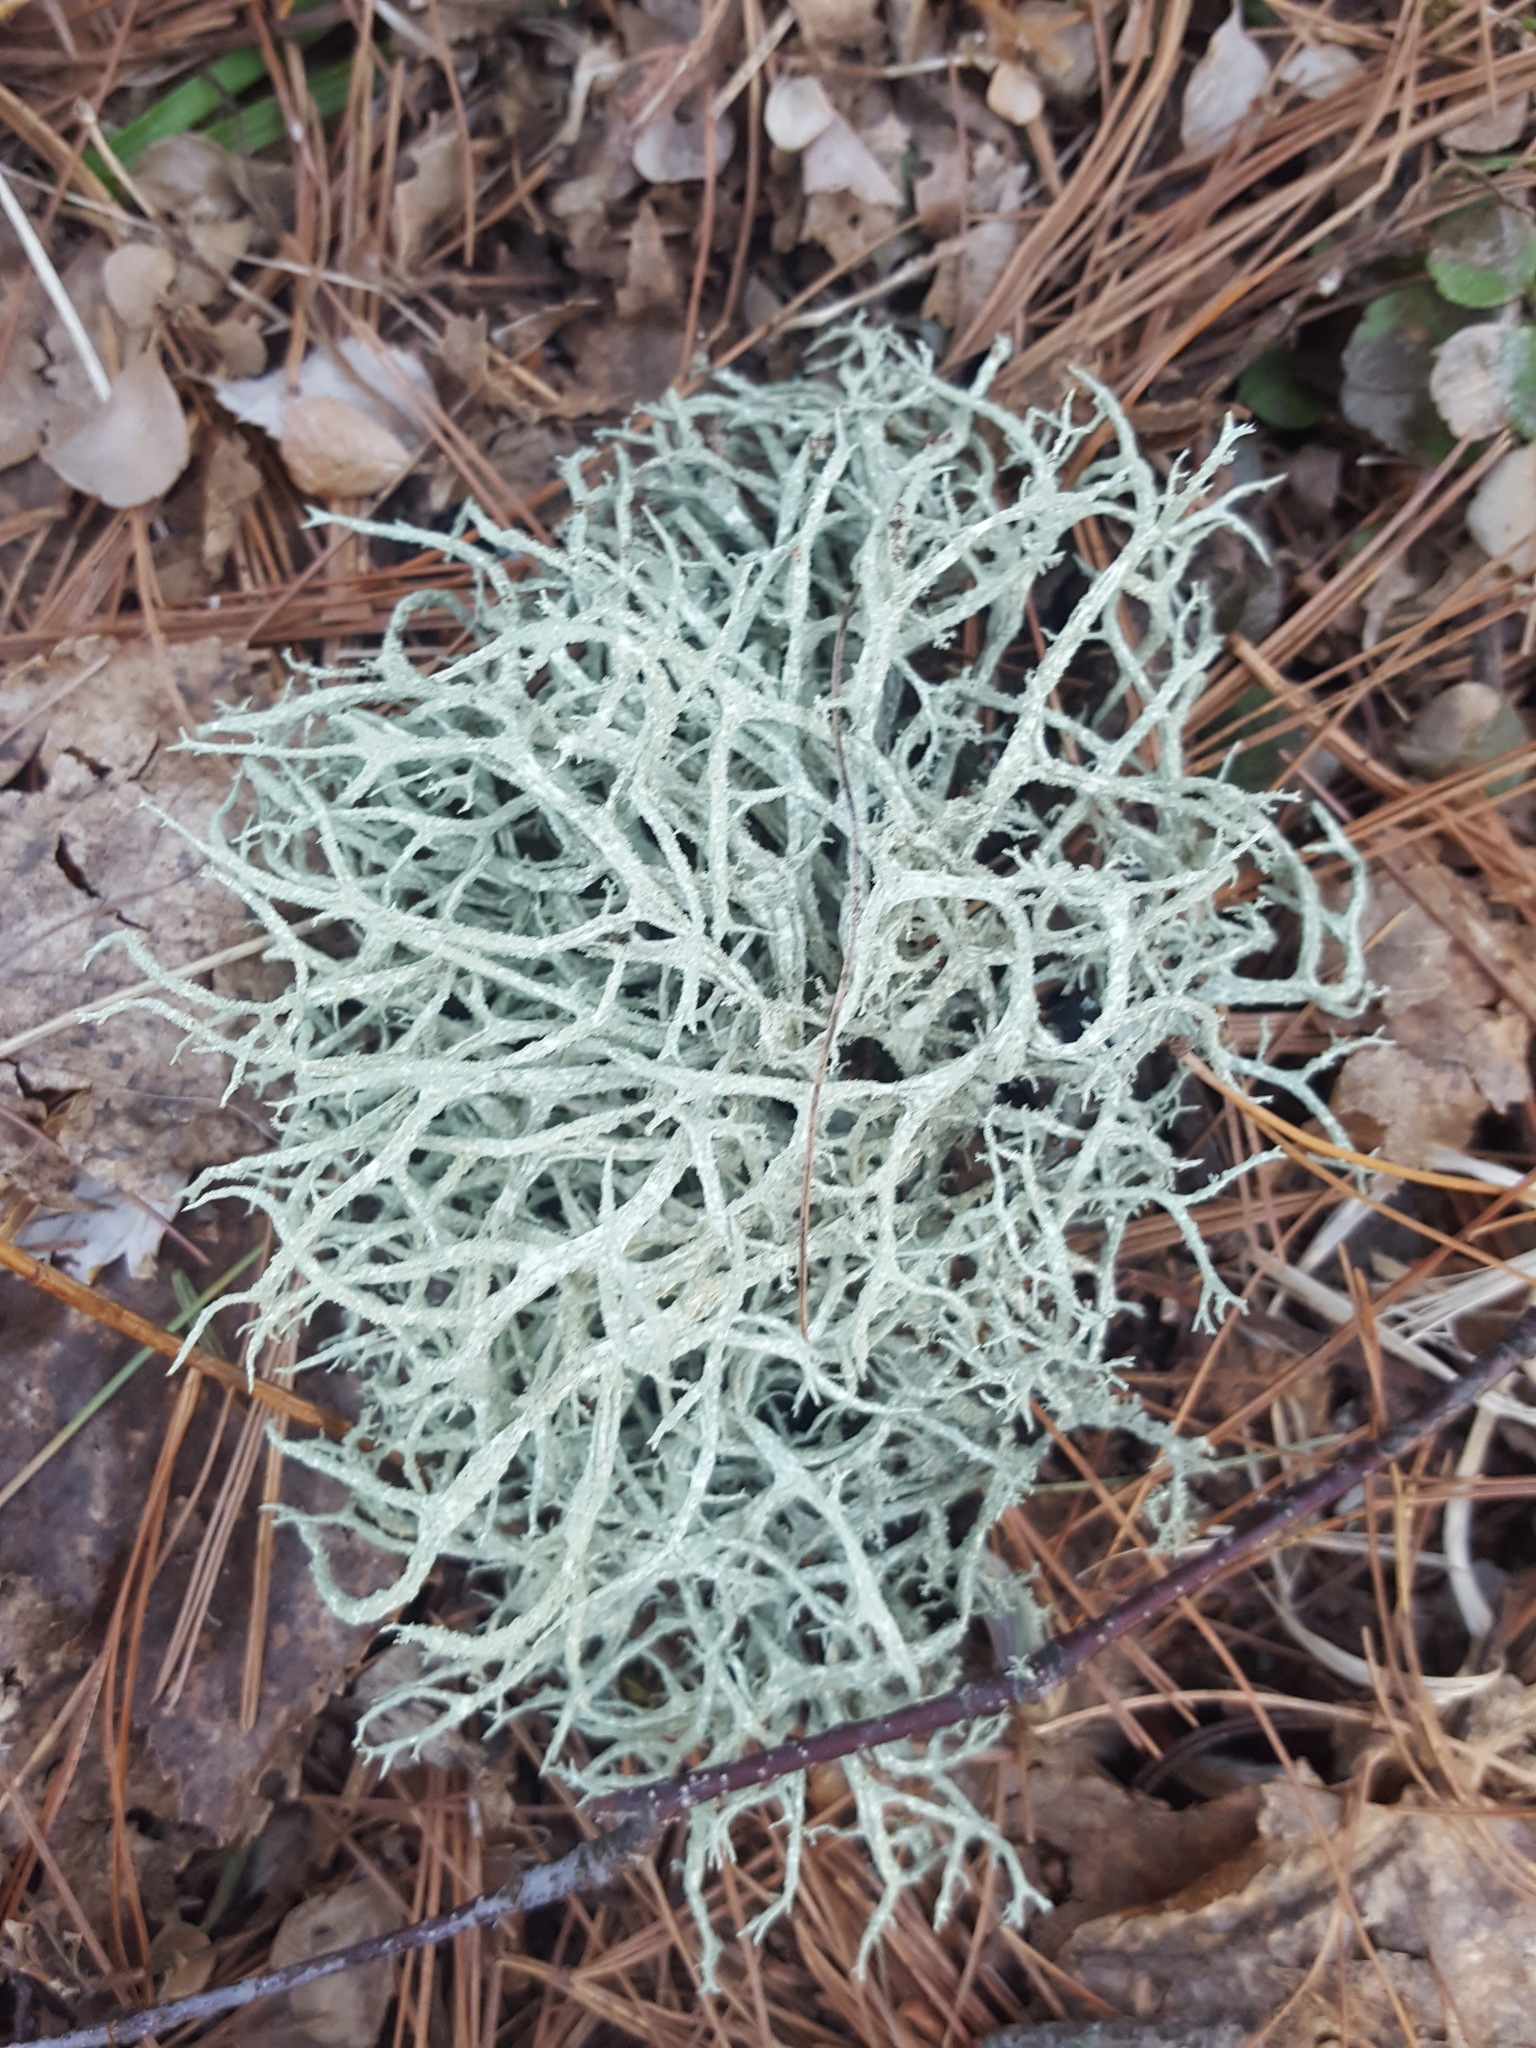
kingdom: Fungi
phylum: Ascomycota
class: Lecanoromycetes
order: Lecanorales
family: Parmeliaceae
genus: Evernia
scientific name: Evernia mesomorpha
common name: Boreal oak moss lichen
